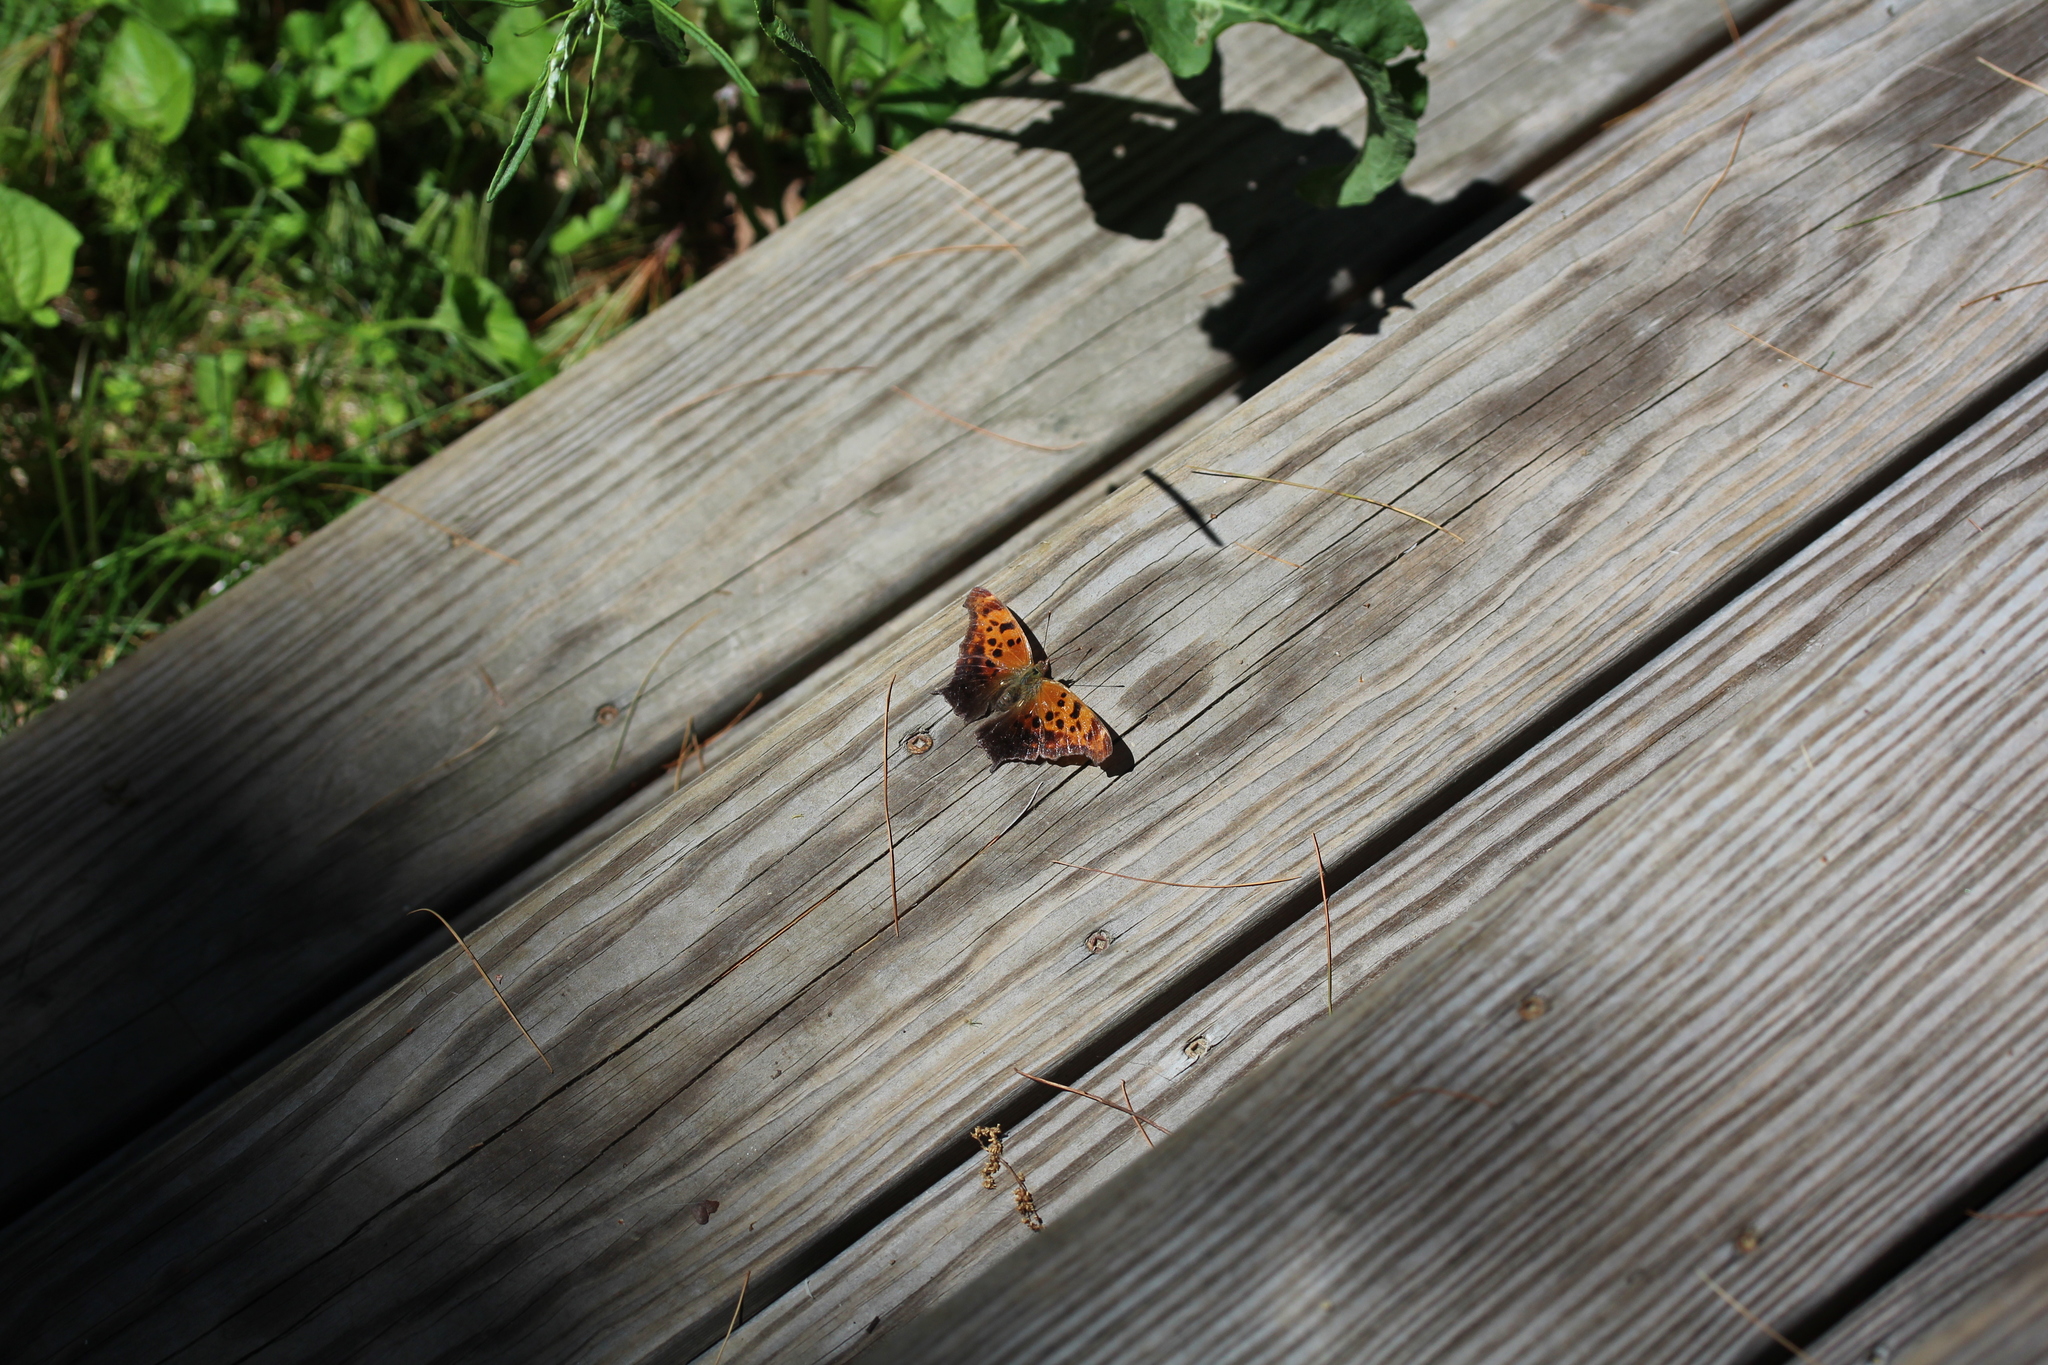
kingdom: Animalia
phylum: Arthropoda
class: Insecta
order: Lepidoptera
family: Nymphalidae
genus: Polygonia
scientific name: Polygonia interrogationis
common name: Question mark
